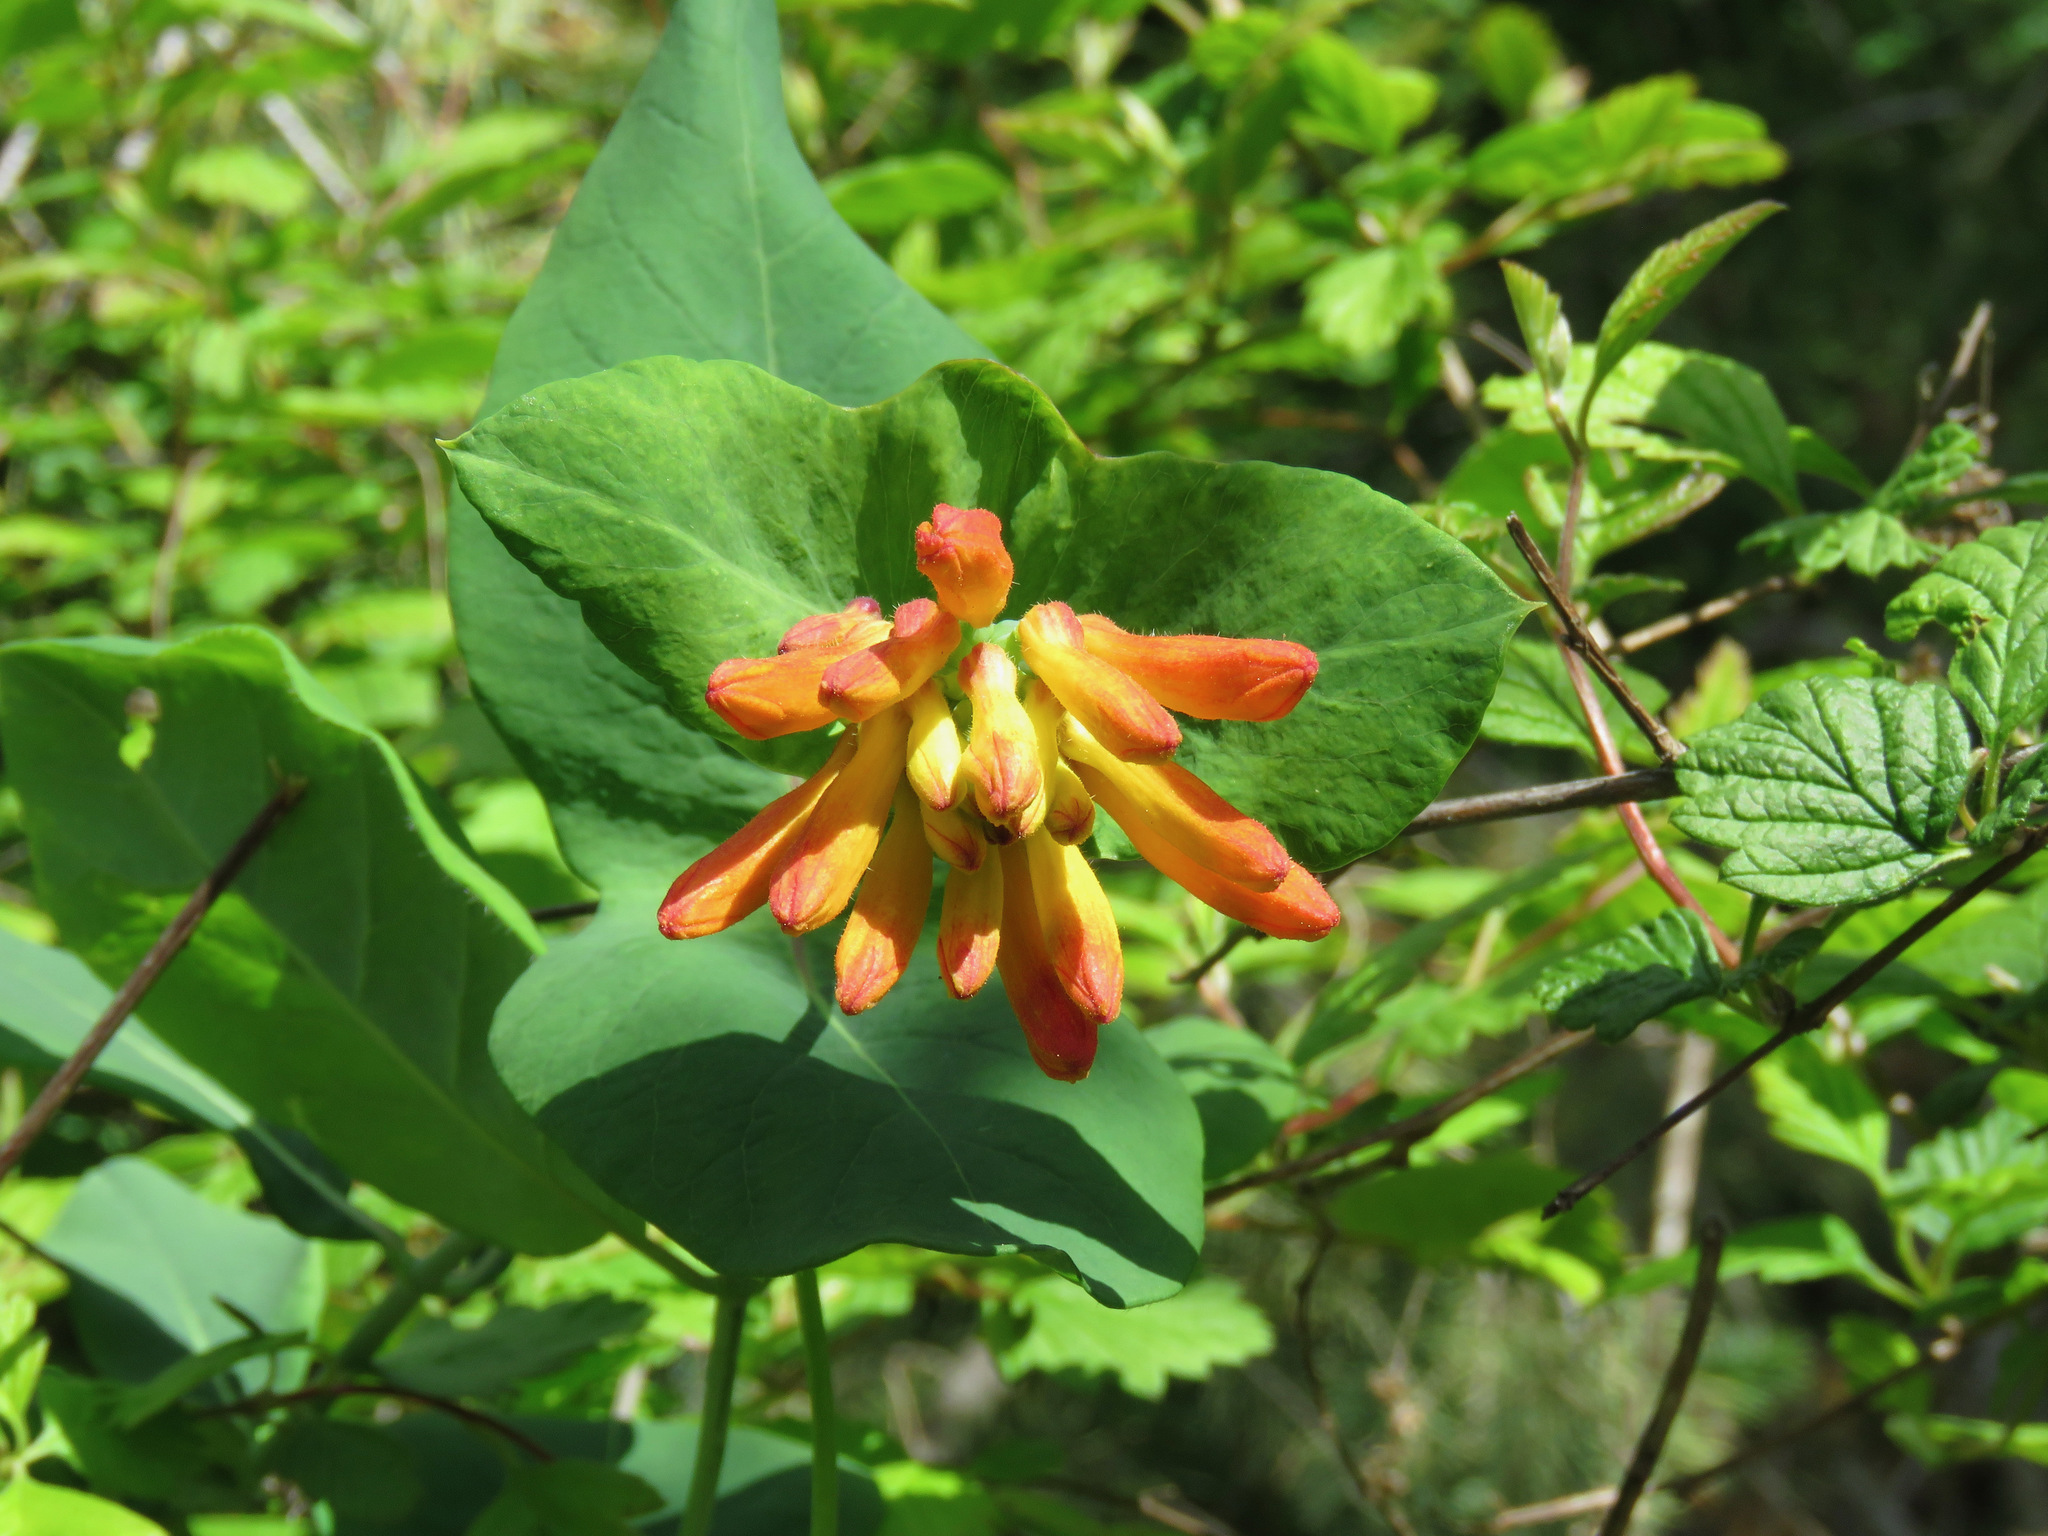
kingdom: Plantae
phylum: Tracheophyta
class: Magnoliopsida
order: Dipsacales
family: Caprifoliaceae
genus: Lonicera
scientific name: Lonicera ciliosa
